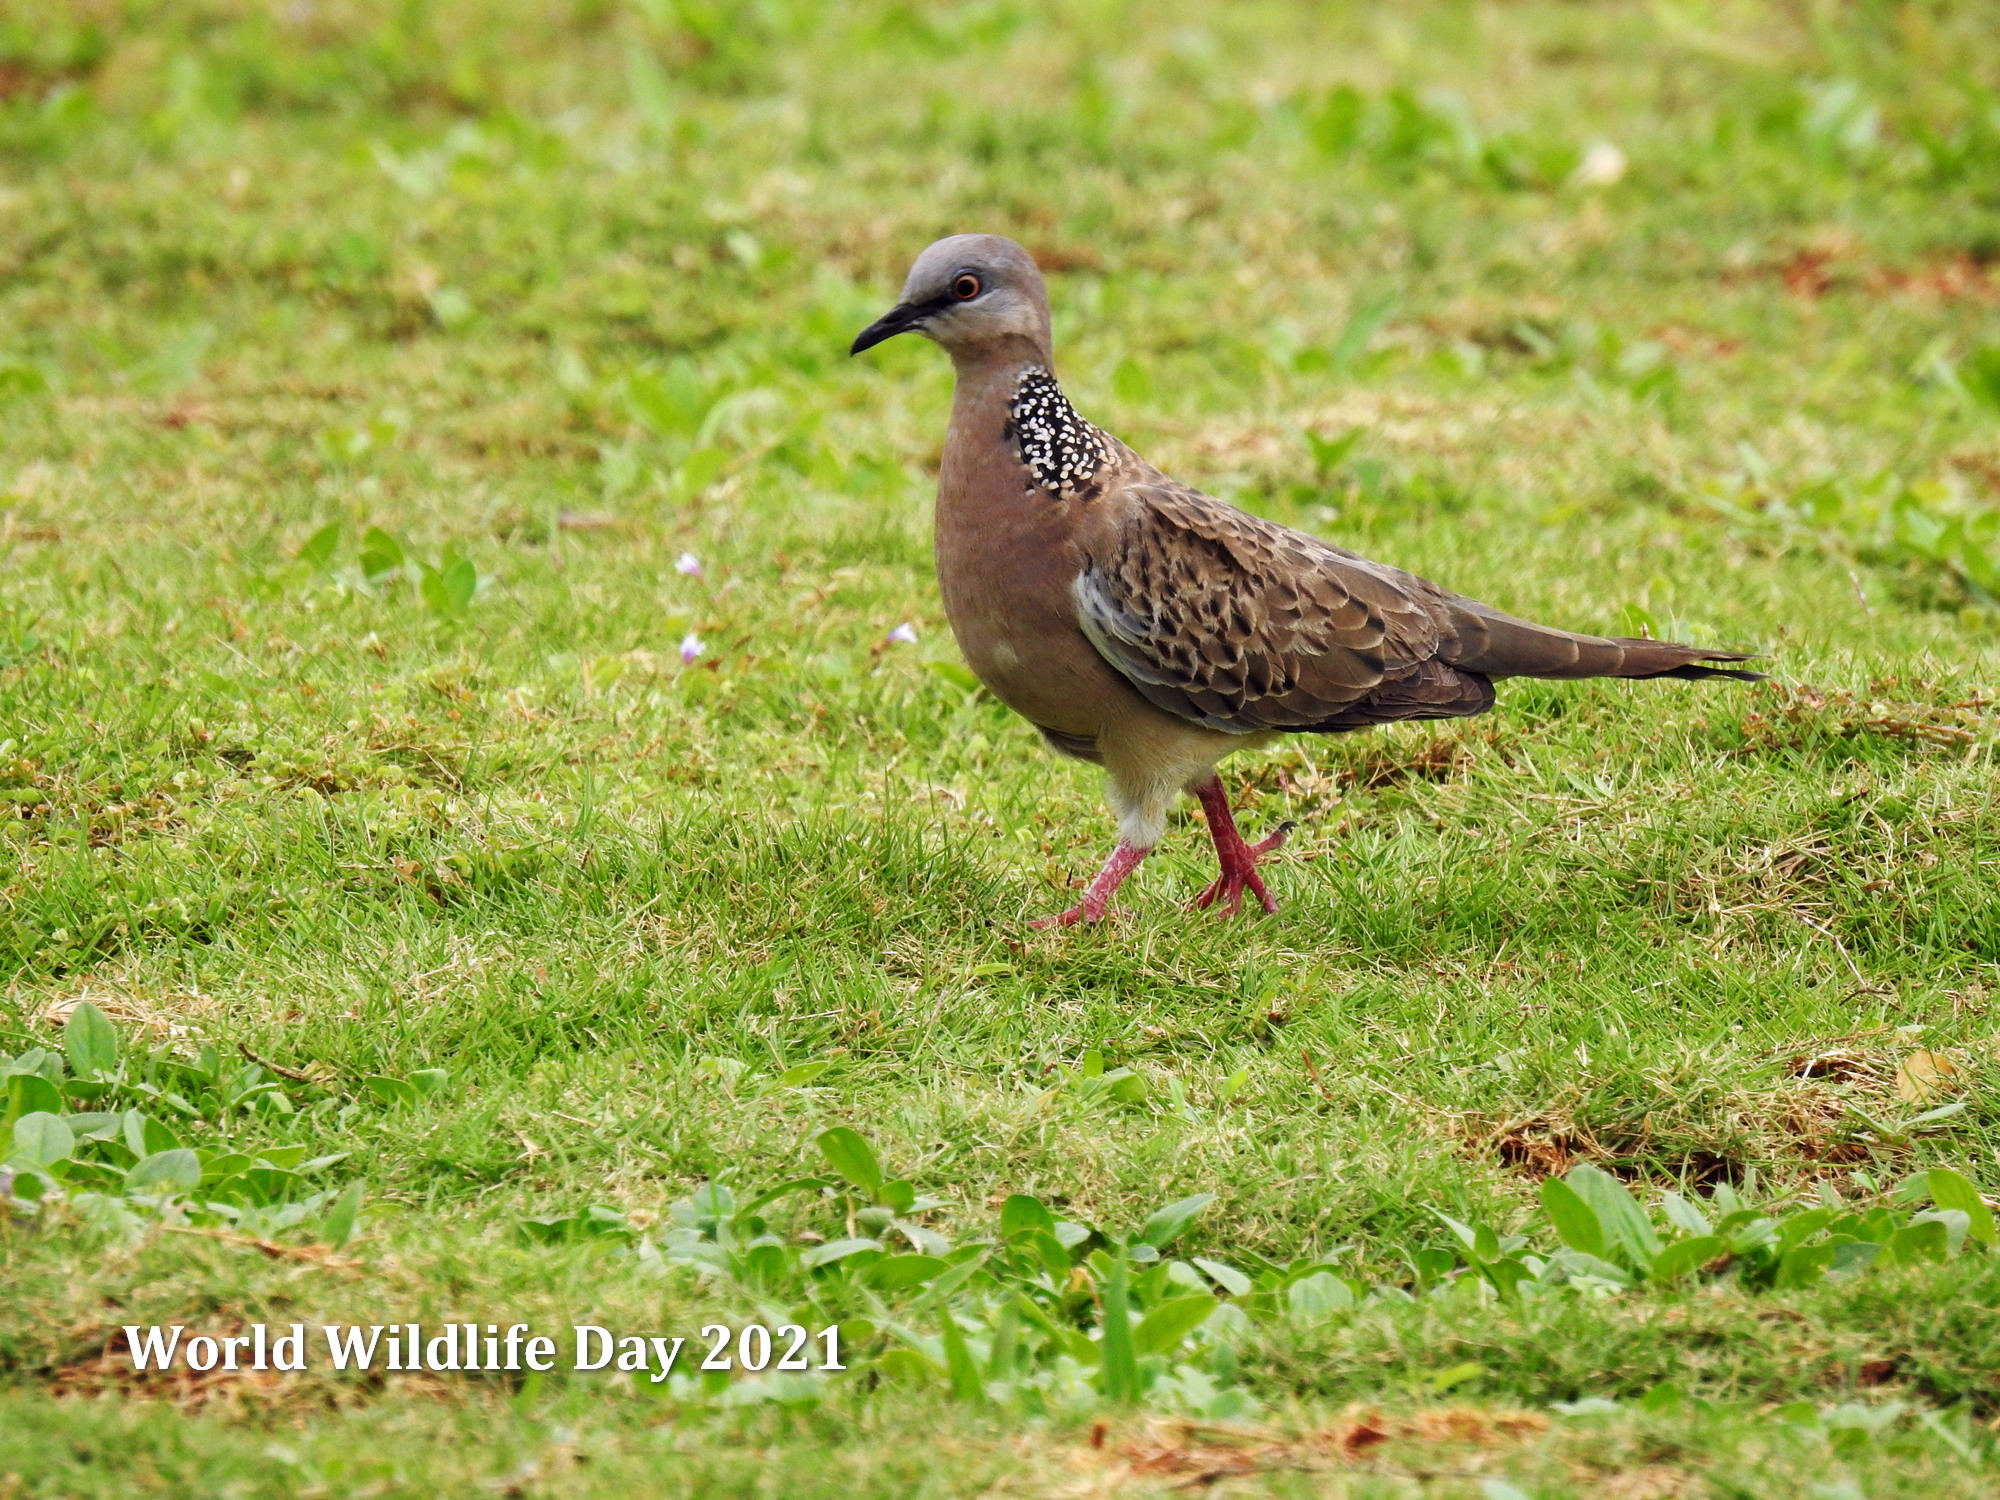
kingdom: Animalia
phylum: Chordata
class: Aves
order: Columbiformes
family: Columbidae
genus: Spilopelia
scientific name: Spilopelia chinensis
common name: Spotted dove
